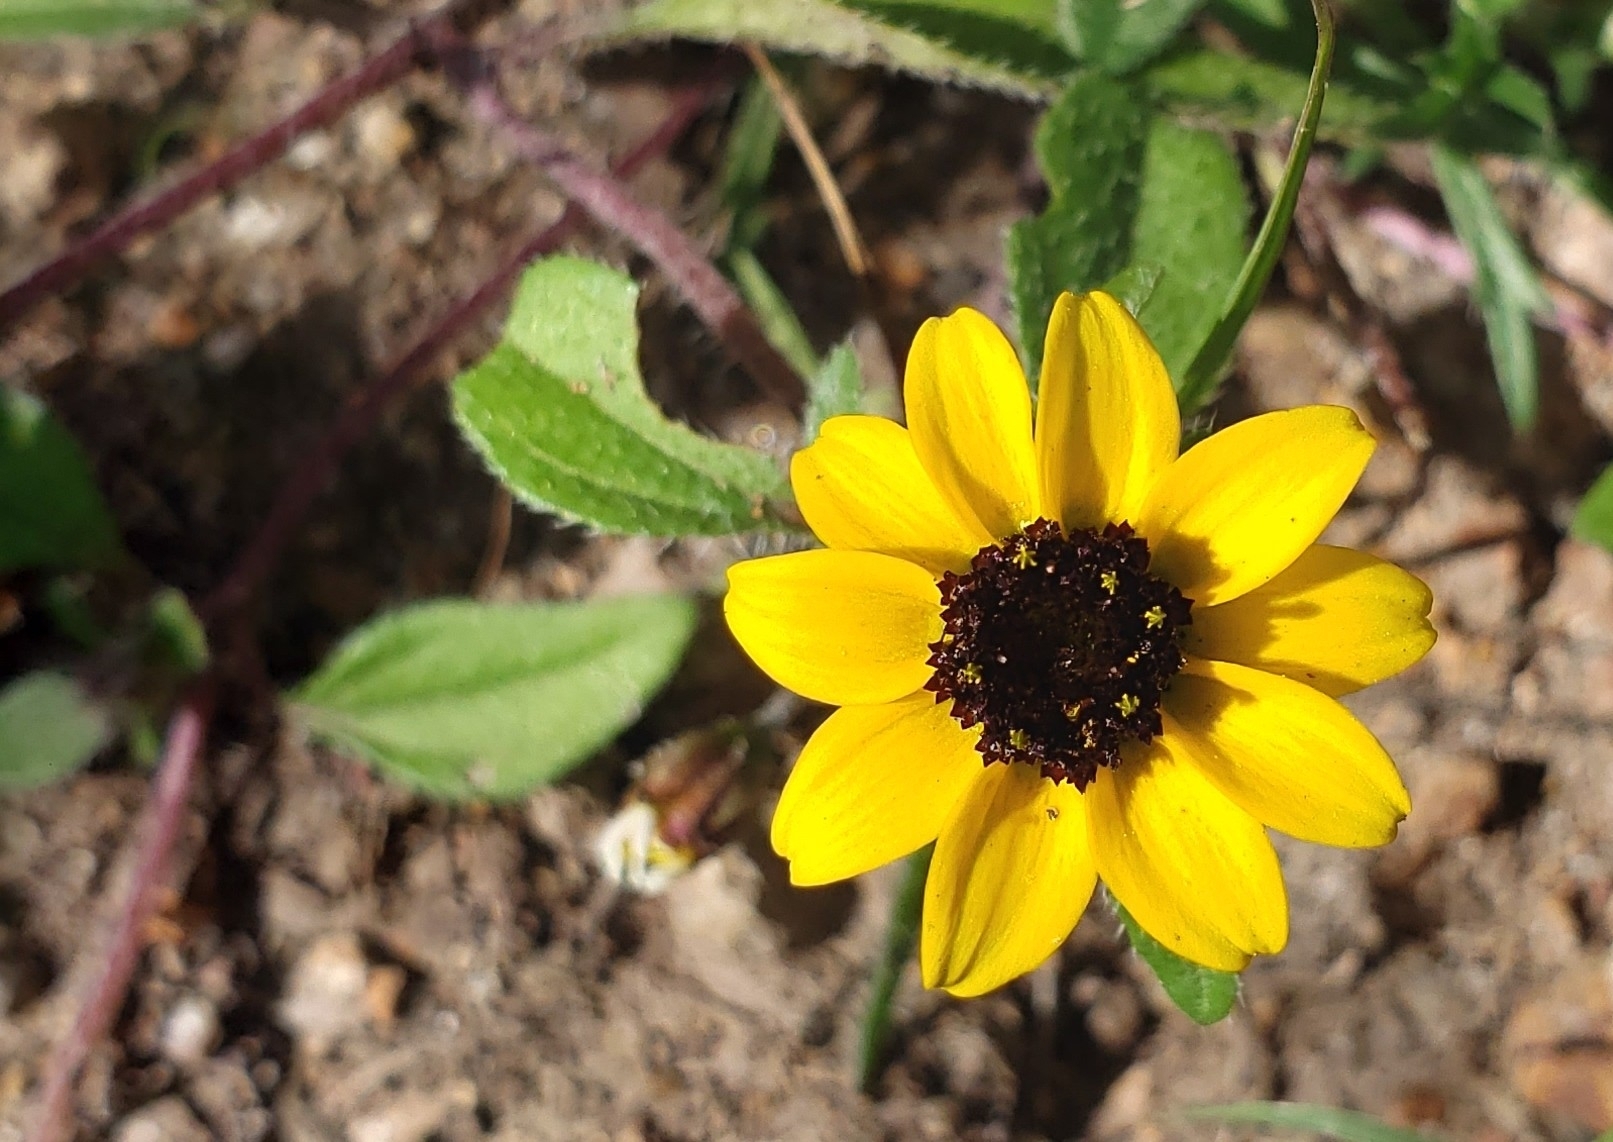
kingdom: Plantae
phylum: Tracheophyta
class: Magnoliopsida
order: Asterales
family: Asteraceae
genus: Sanvitalia
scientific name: Sanvitalia procumbens
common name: Mexican creeping zinnia
